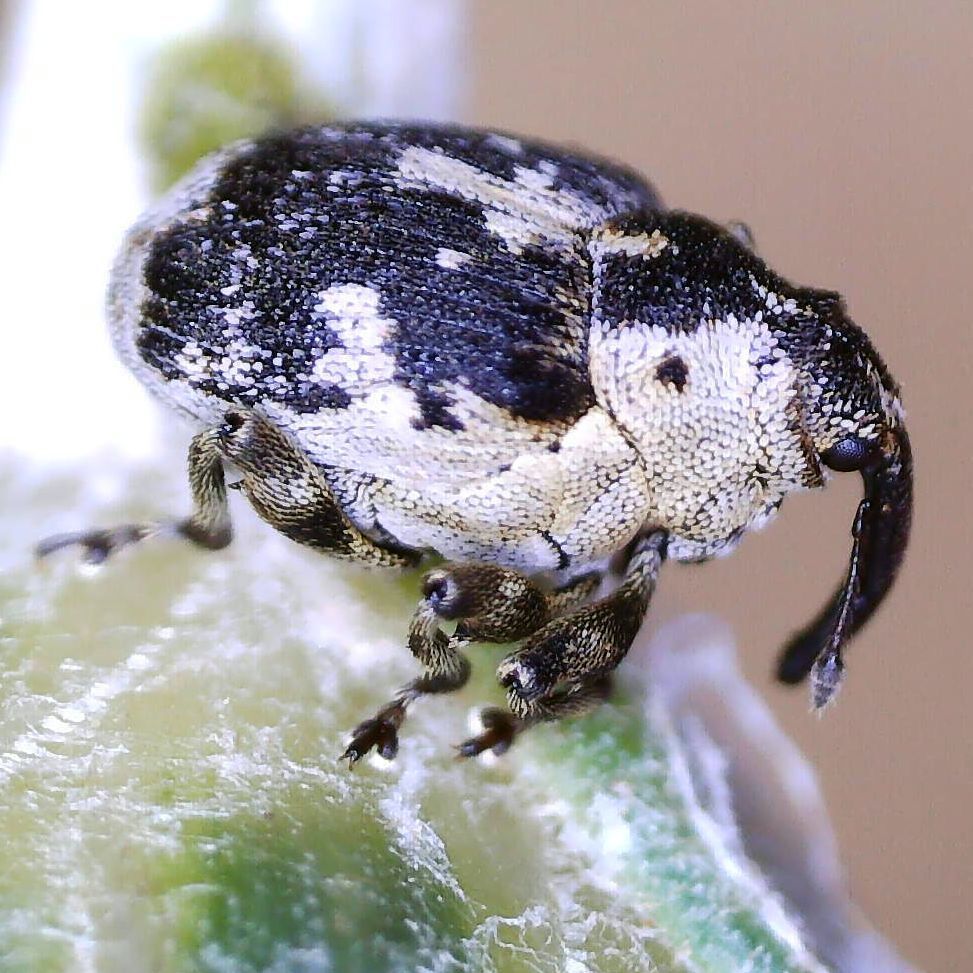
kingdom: Animalia
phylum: Arthropoda
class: Insecta
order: Coleoptera
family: Curculionidae
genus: Hadroplontus
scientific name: Hadroplontus litura
